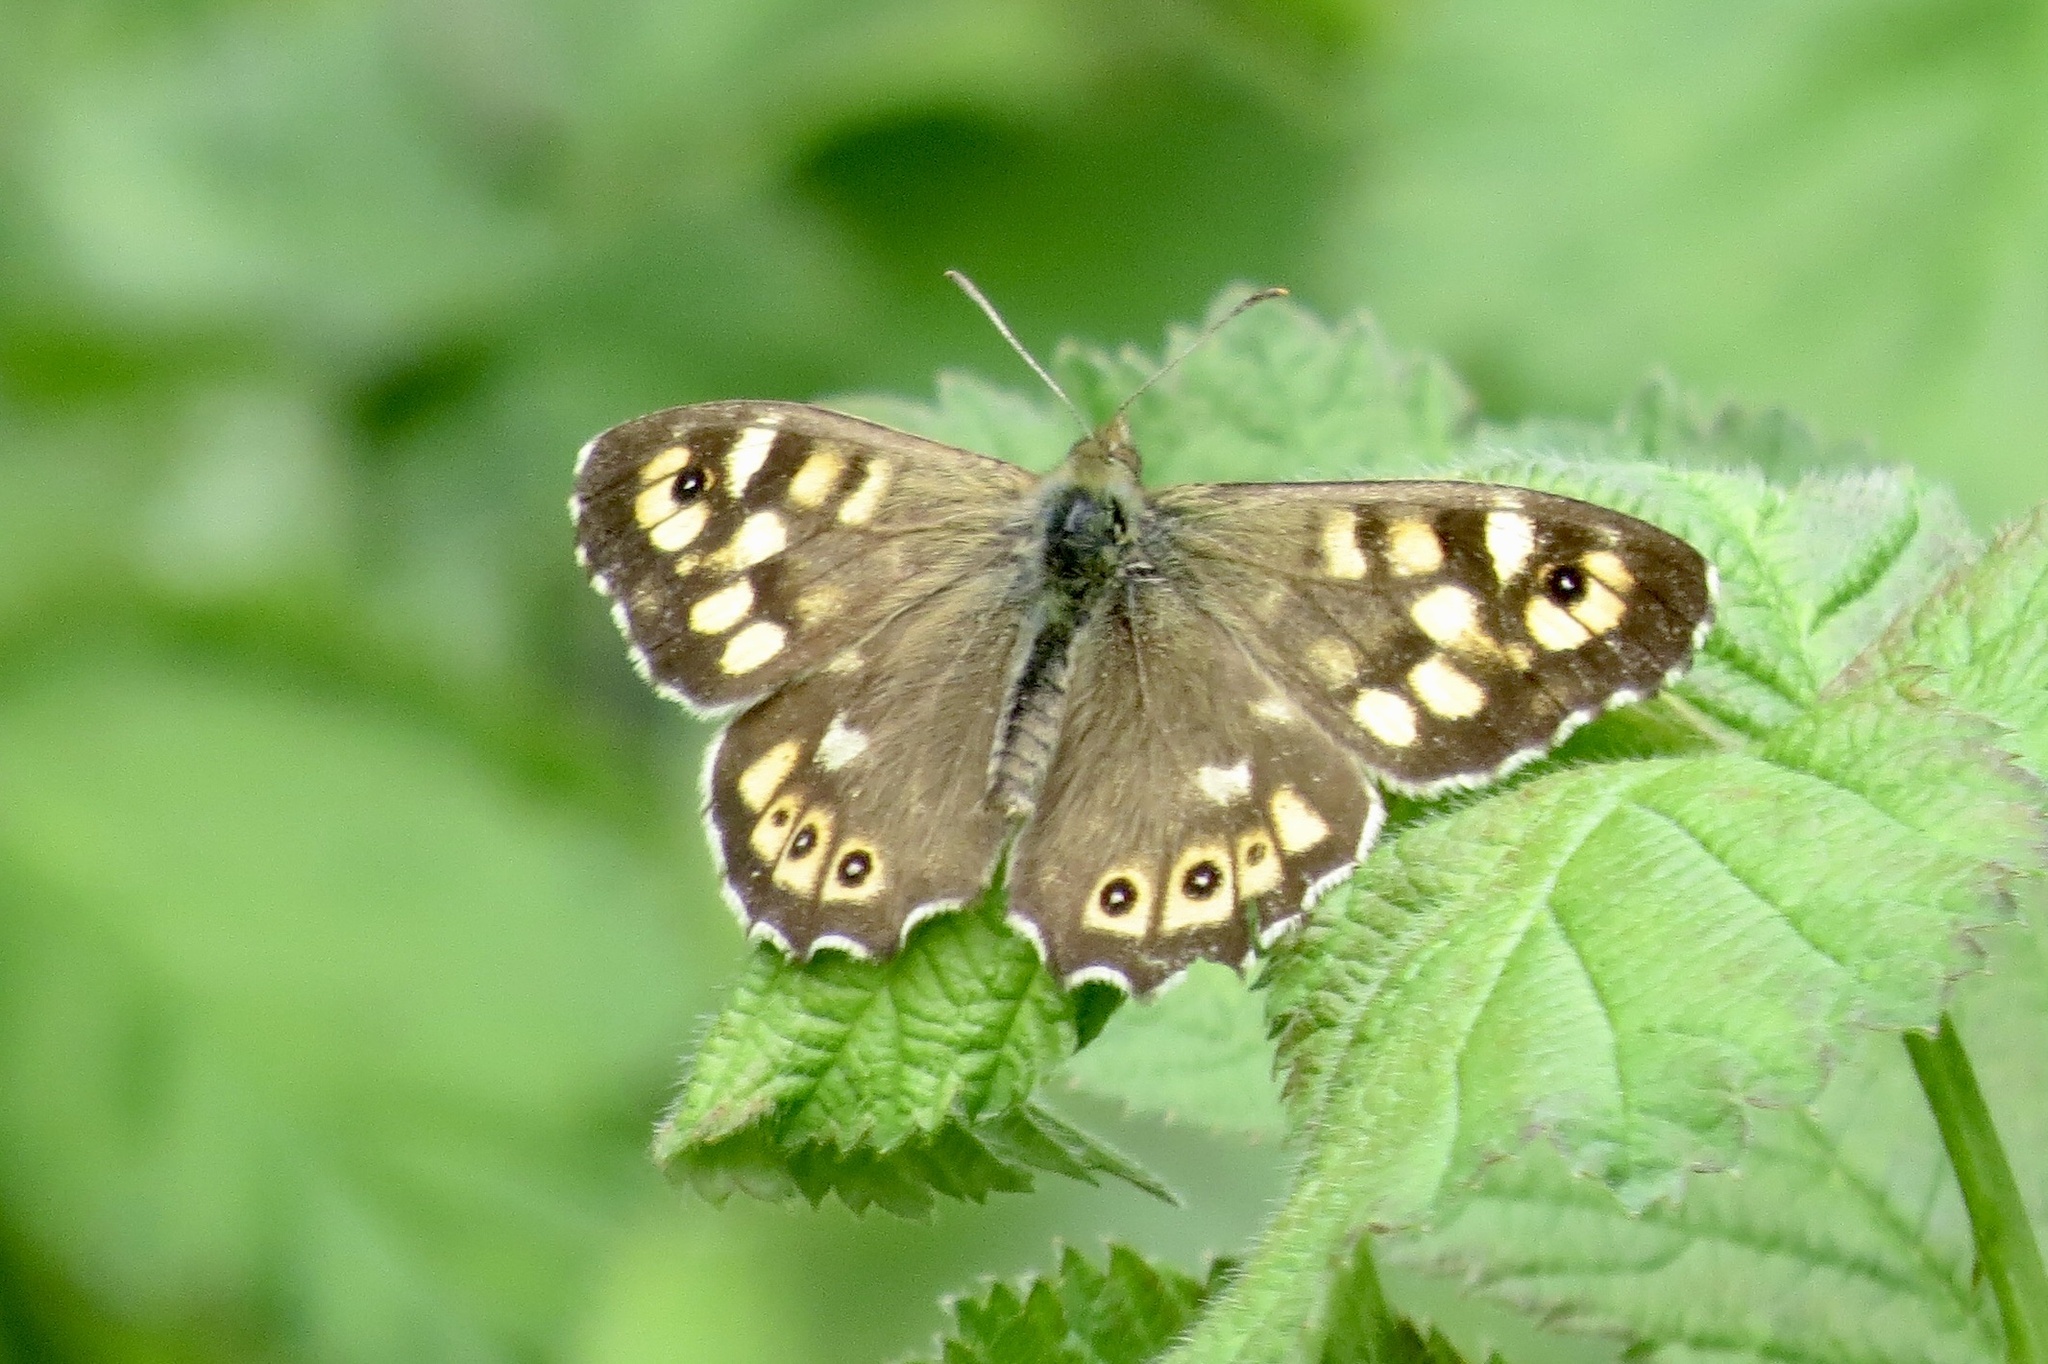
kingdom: Animalia
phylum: Arthropoda
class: Insecta
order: Lepidoptera
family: Nymphalidae
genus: Pararge
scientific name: Pararge aegeria
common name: Speckled wood
